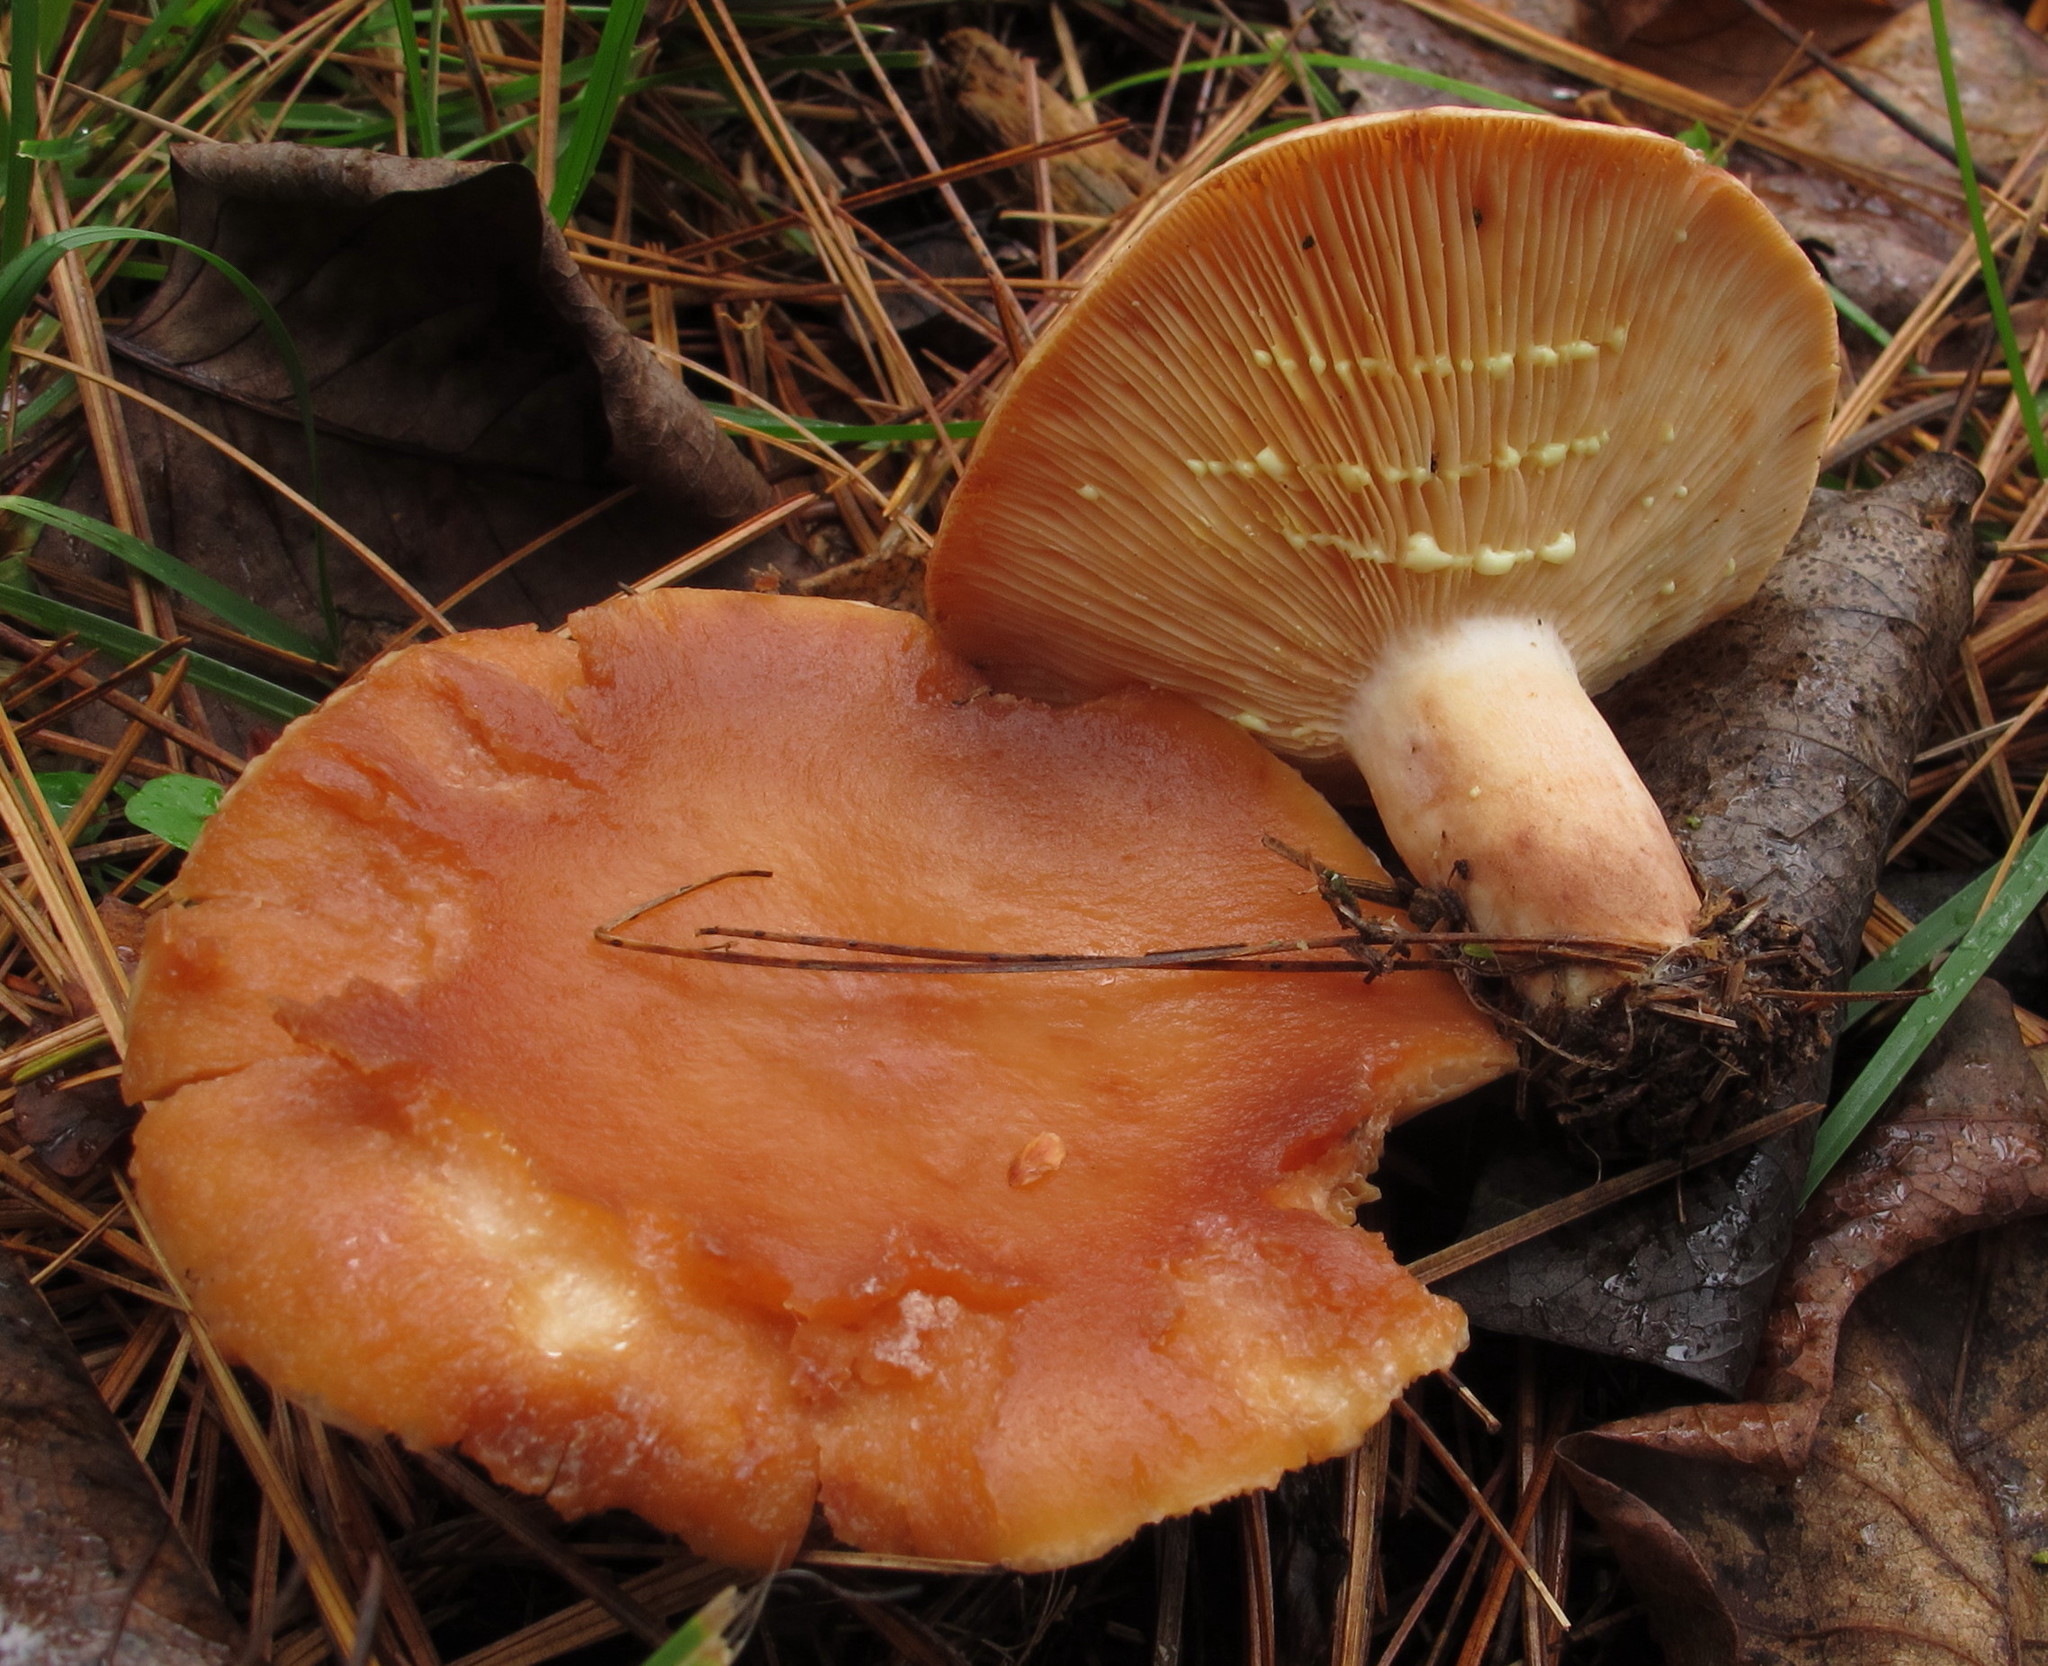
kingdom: Fungi
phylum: Basidiomycota
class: Agaricomycetes
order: Russulales
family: Russulaceae
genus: Lactarius
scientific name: Lactarius vinaceorufescens
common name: Yellow-latex milkcap
